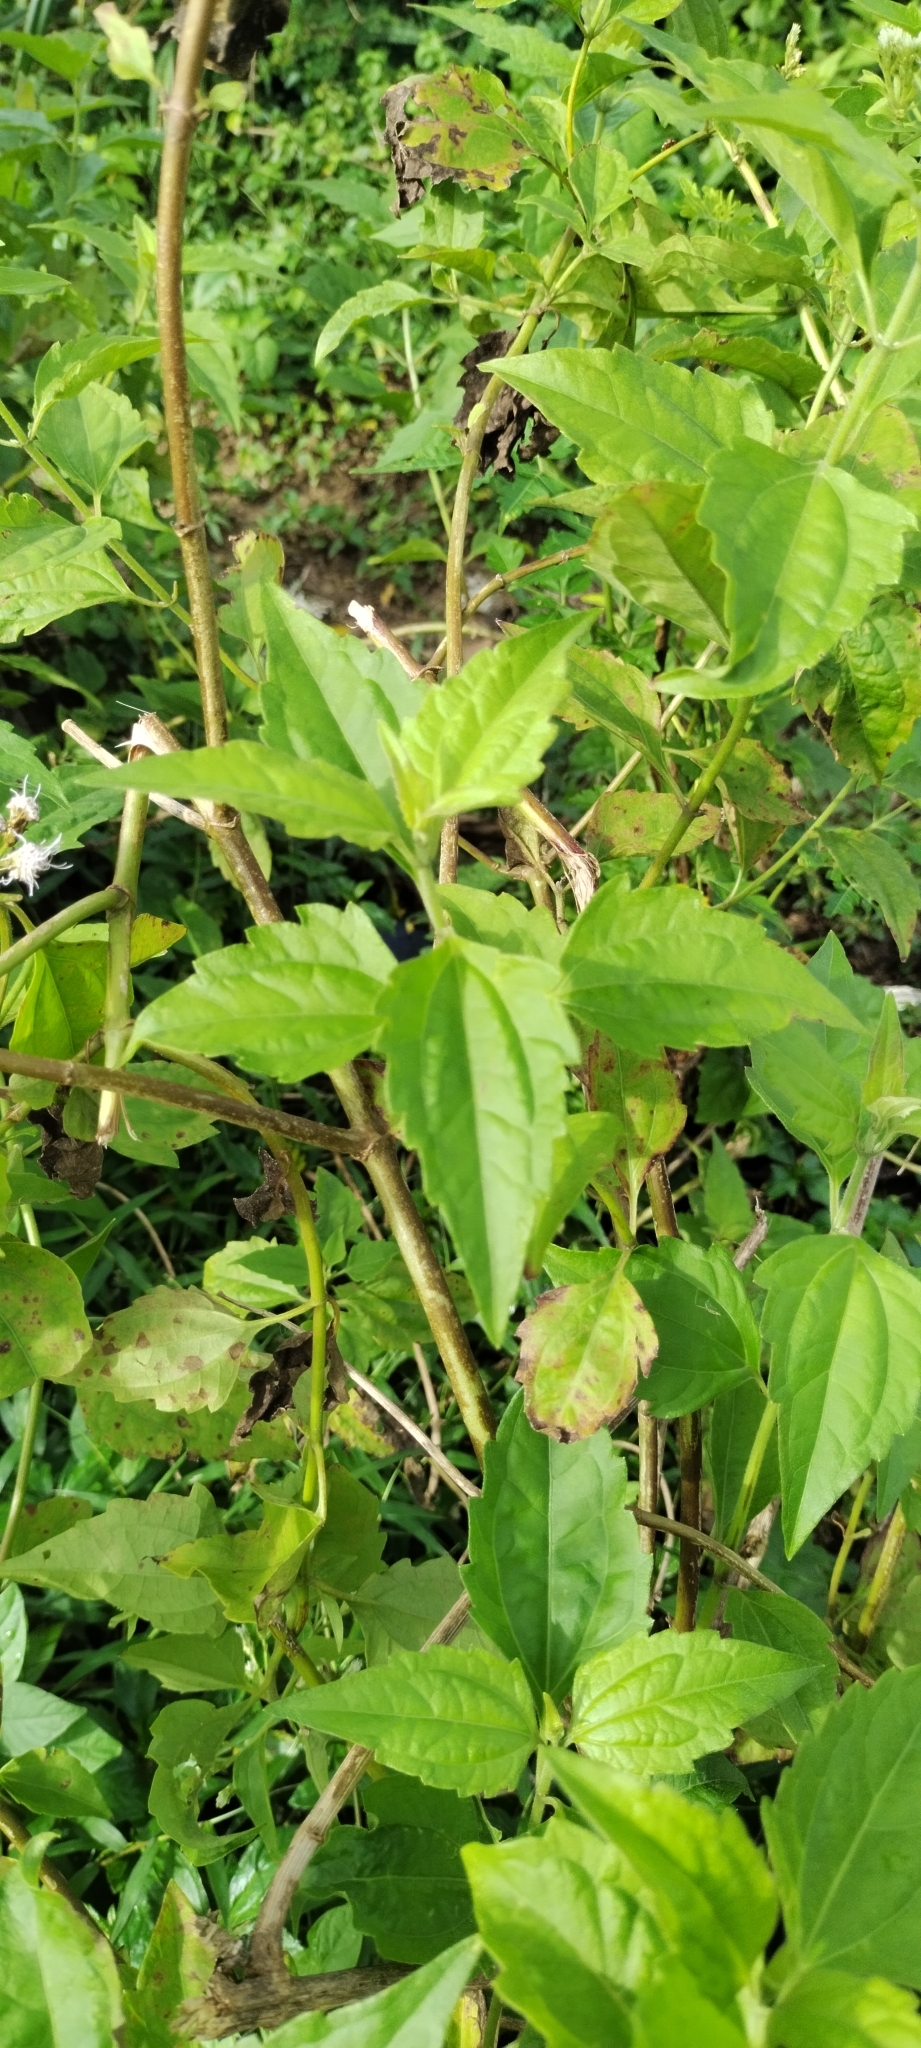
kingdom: Plantae
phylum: Tracheophyta
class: Magnoliopsida
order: Asterales
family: Asteraceae
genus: Chromolaena
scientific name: Chromolaena odorata
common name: Siamweed
